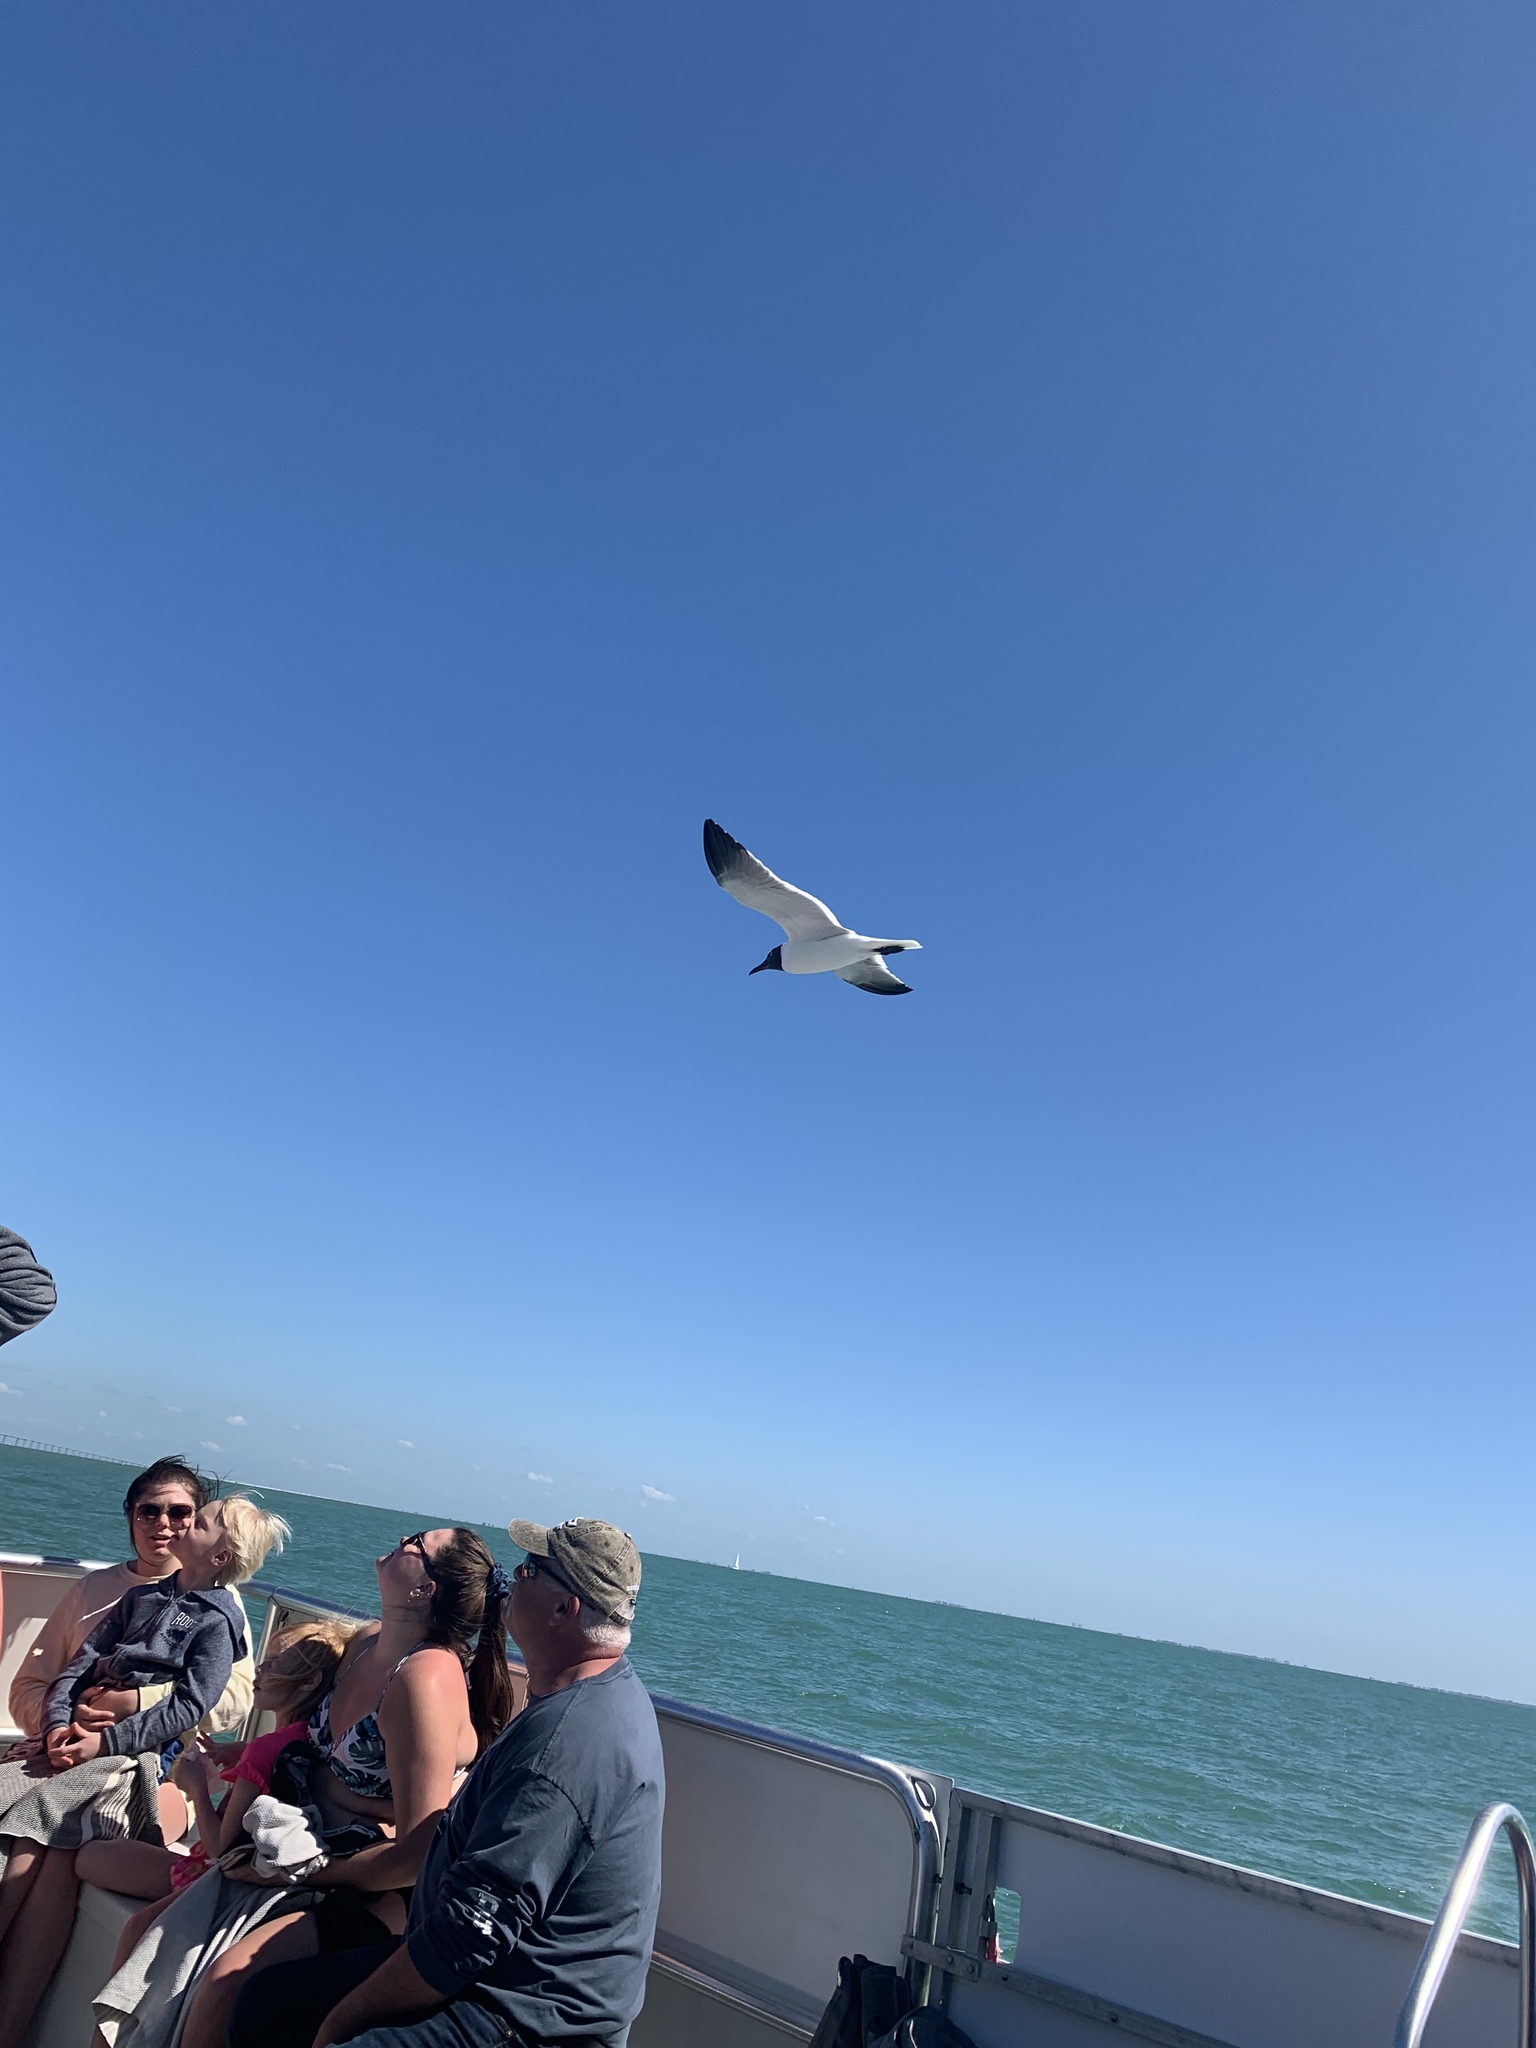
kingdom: Animalia
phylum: Chordata
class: Aves
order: Charadriiformes
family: Laridae
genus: Leucophaeus
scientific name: Leucophaeus atricilla
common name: Laughing gull
